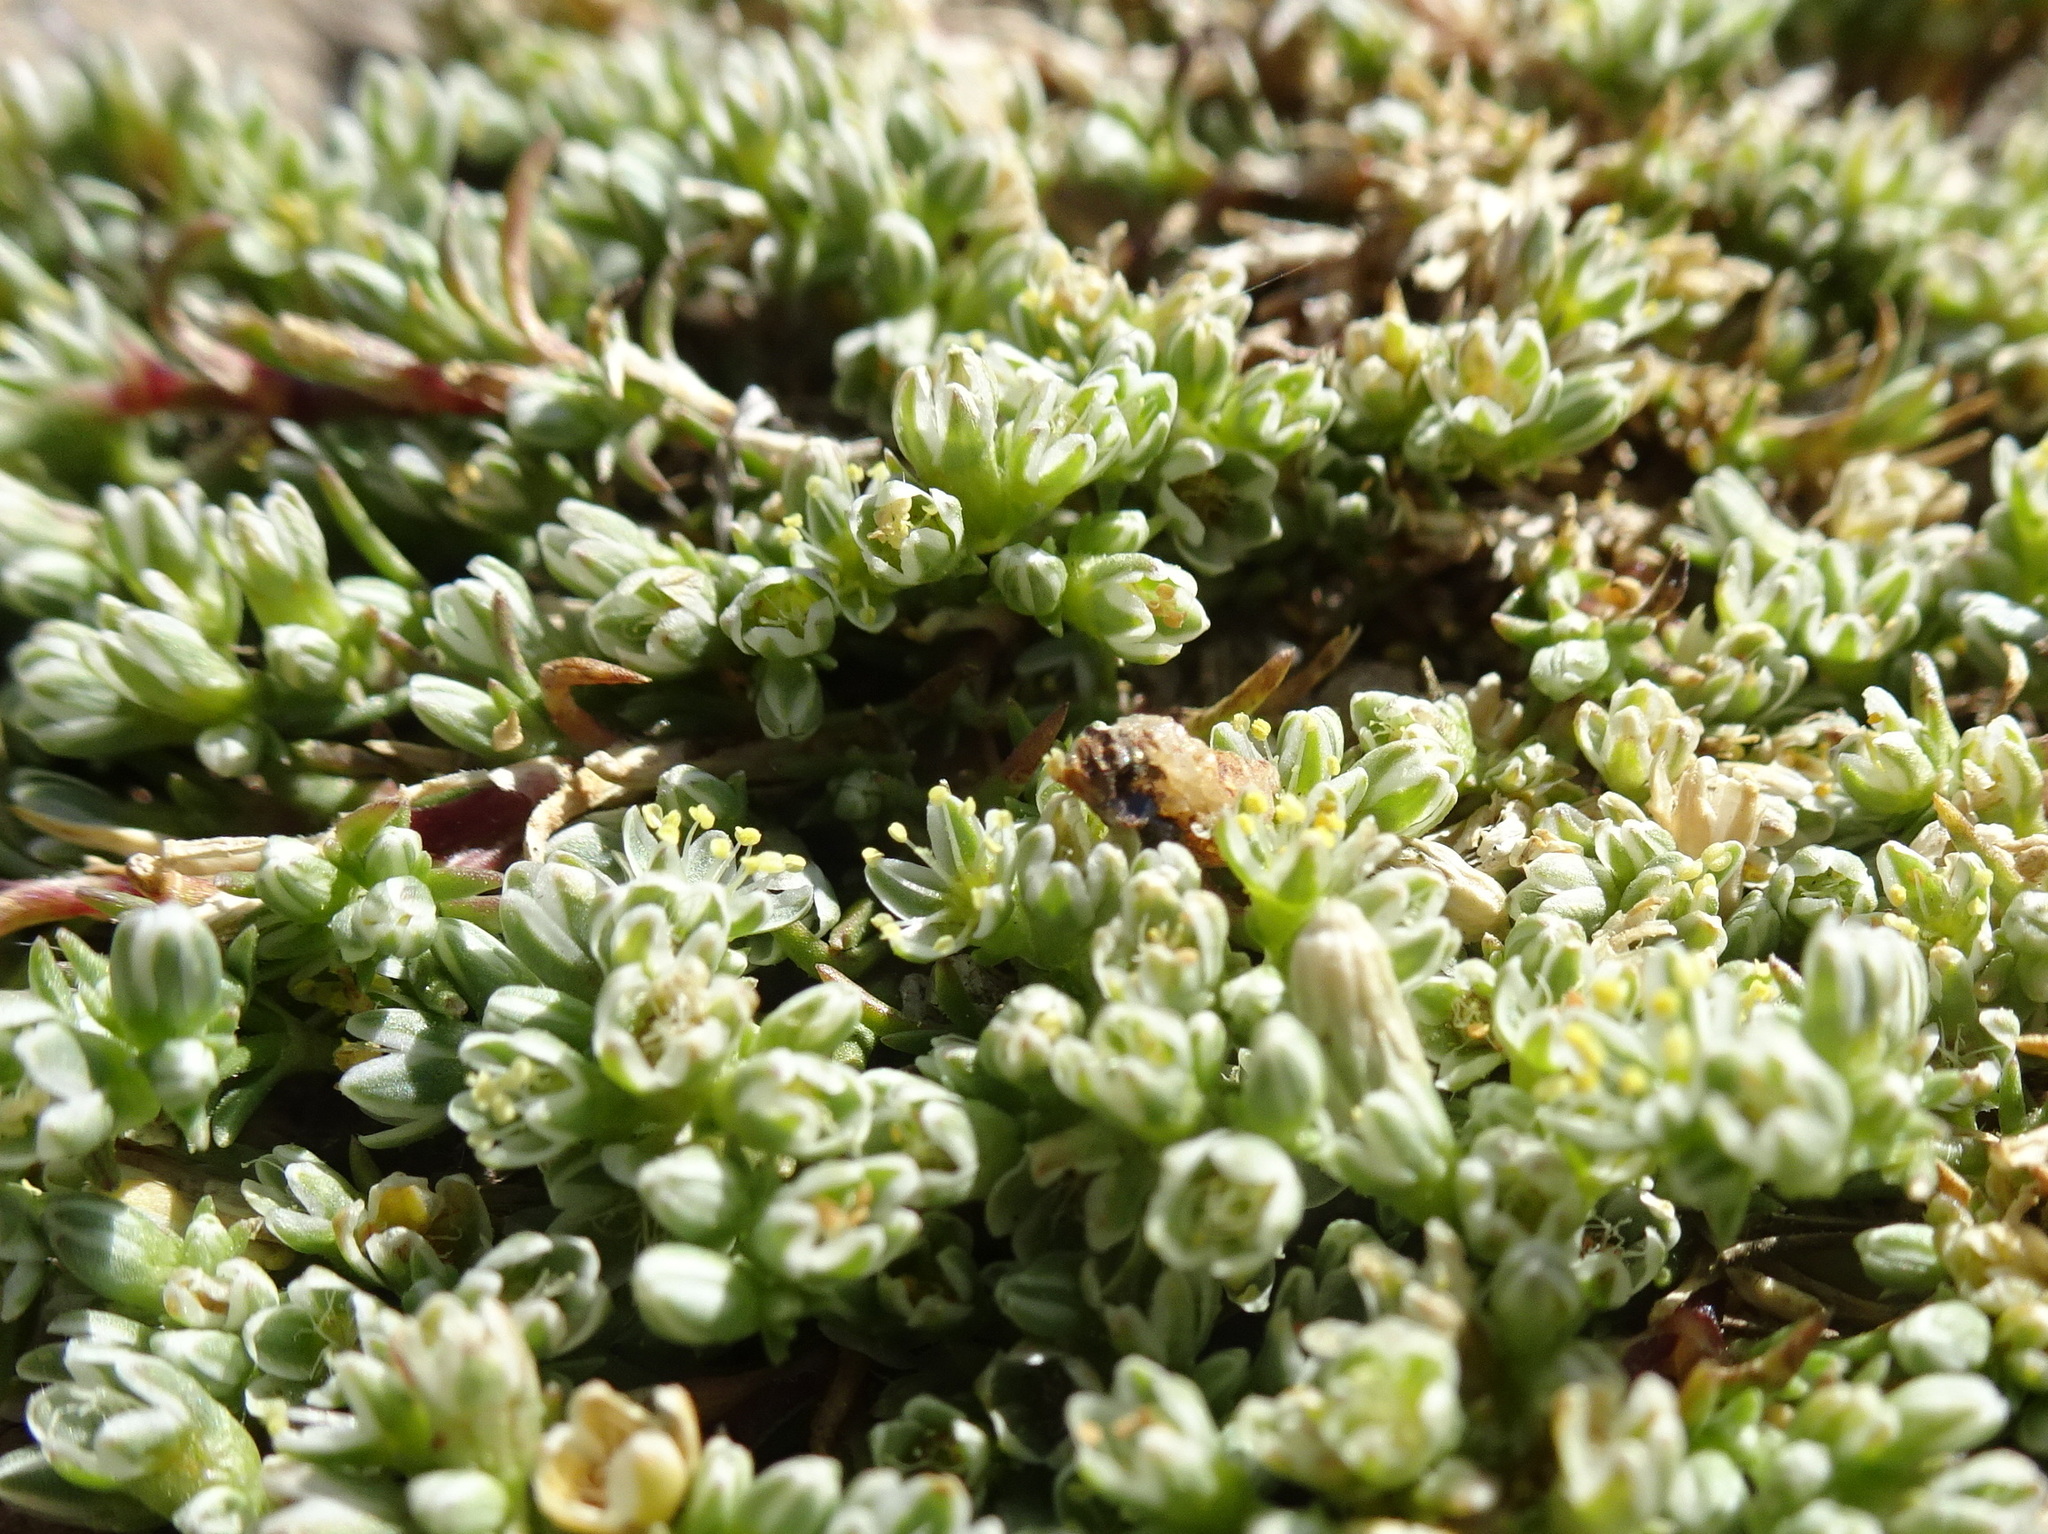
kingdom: Plantae
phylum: Tracheophyta
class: Magnoliopsida
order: Caryophyllales
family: Caryophyllaceae
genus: Scleranthus
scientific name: Scleranthus perennis
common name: Perennial knawel
